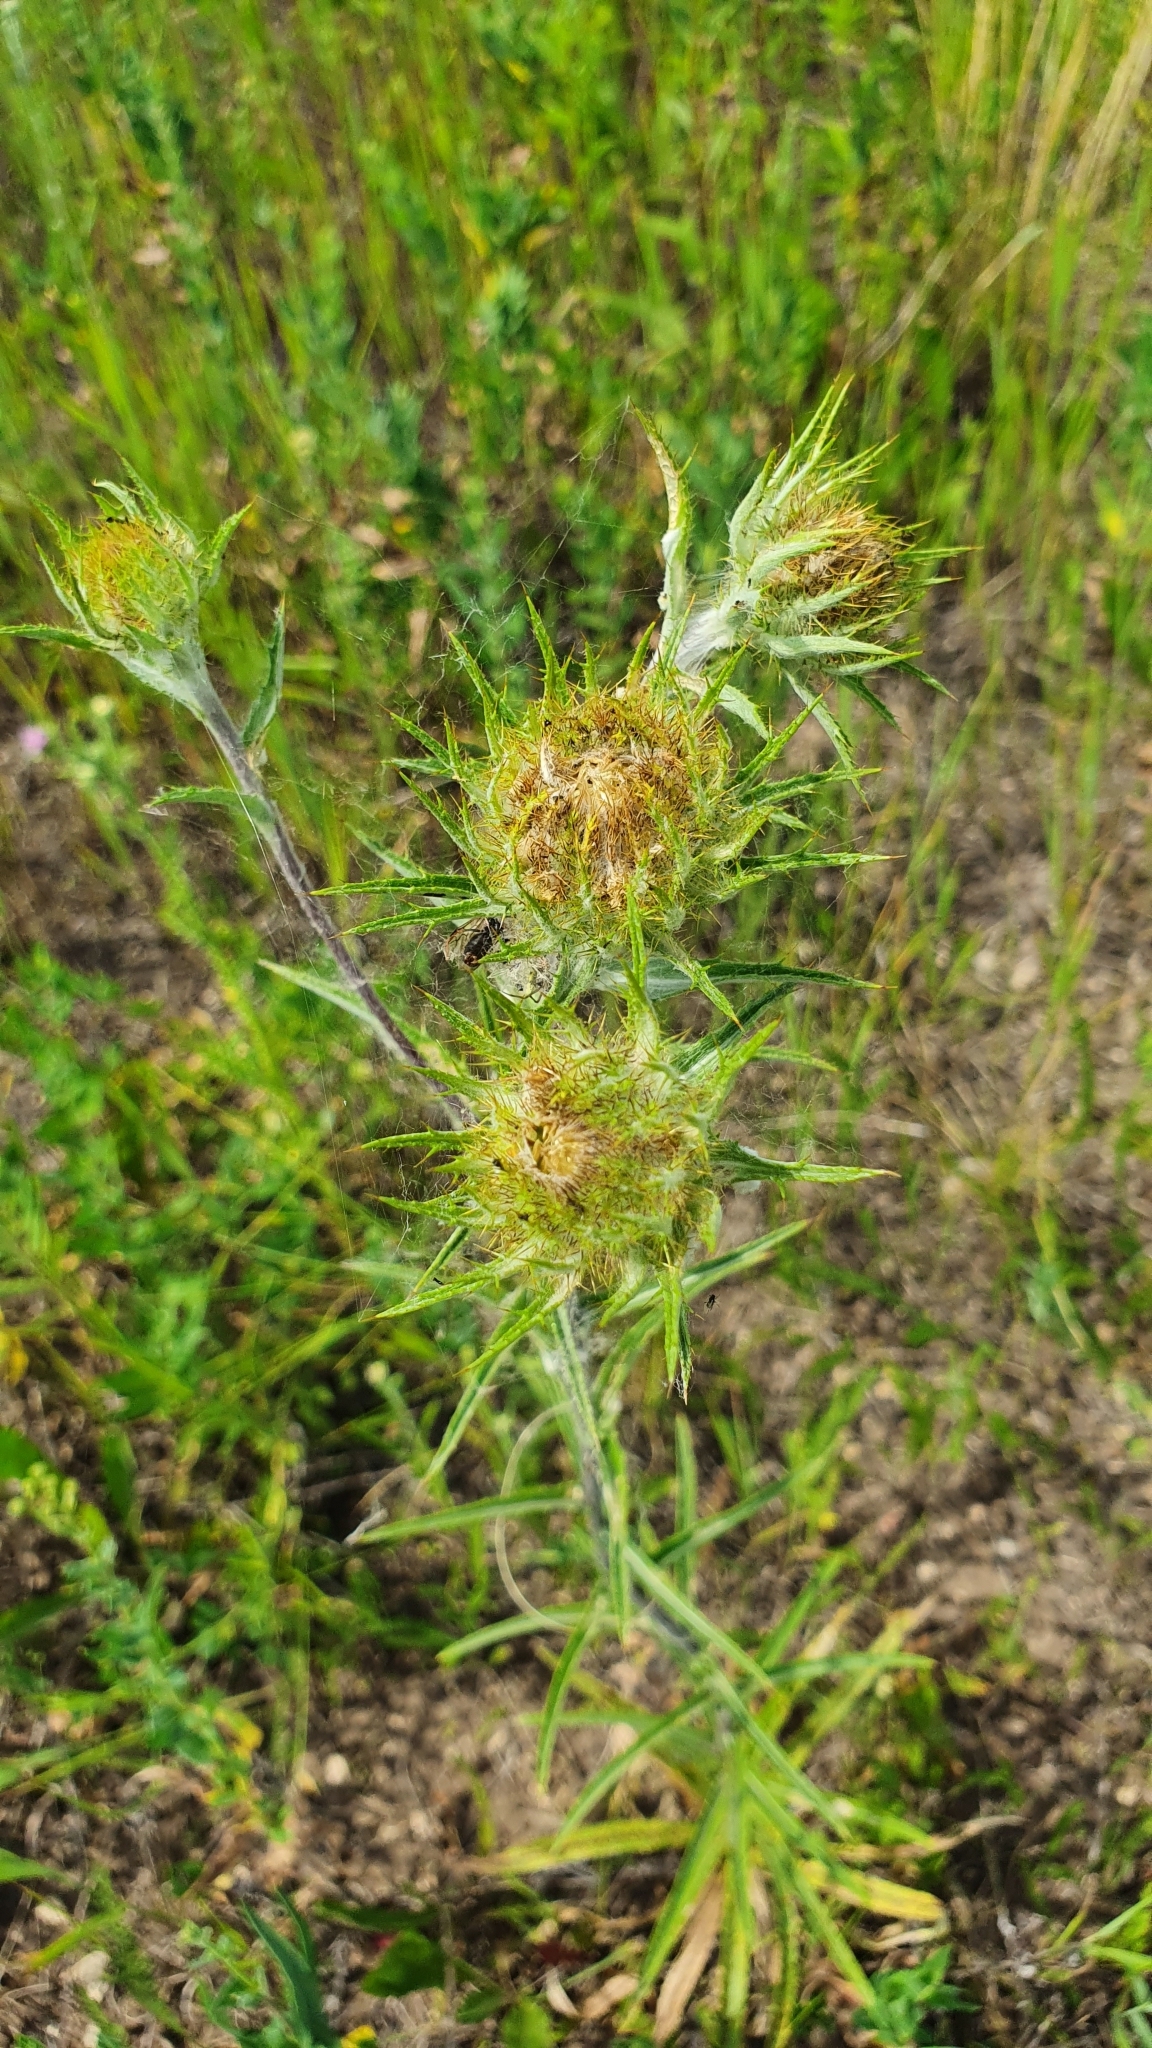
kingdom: Plantae
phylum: Tracheophyta
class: Magnoliopsida
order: Asterales
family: Asteraceae
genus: Carlina
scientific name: Carlina biebersteinii
